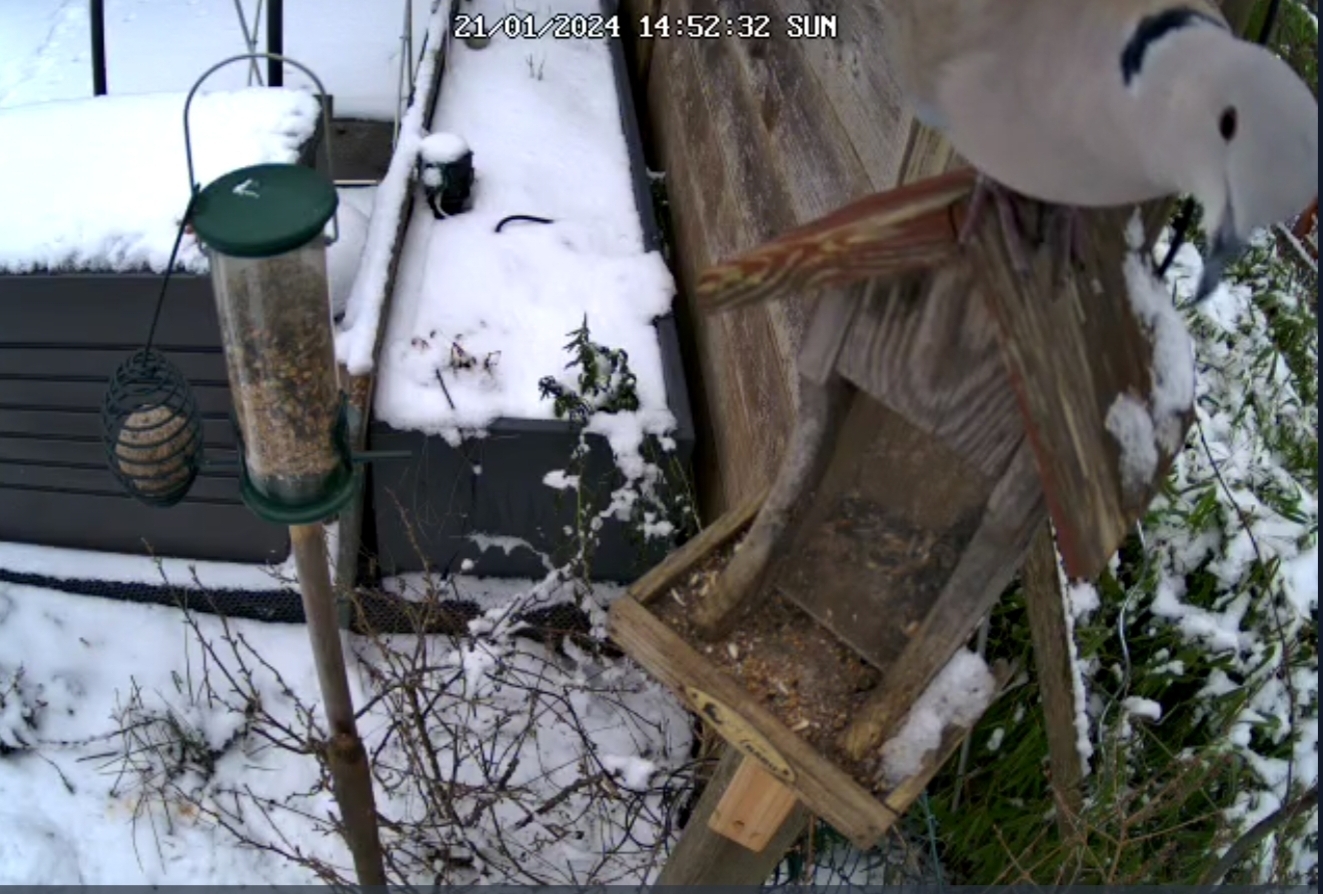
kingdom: Animalia
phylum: Chordata
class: Aves
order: Columbiformes
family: Columbidae
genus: Streptopelia
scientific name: Streptopelia decaocto
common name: Eurasian collared dove
